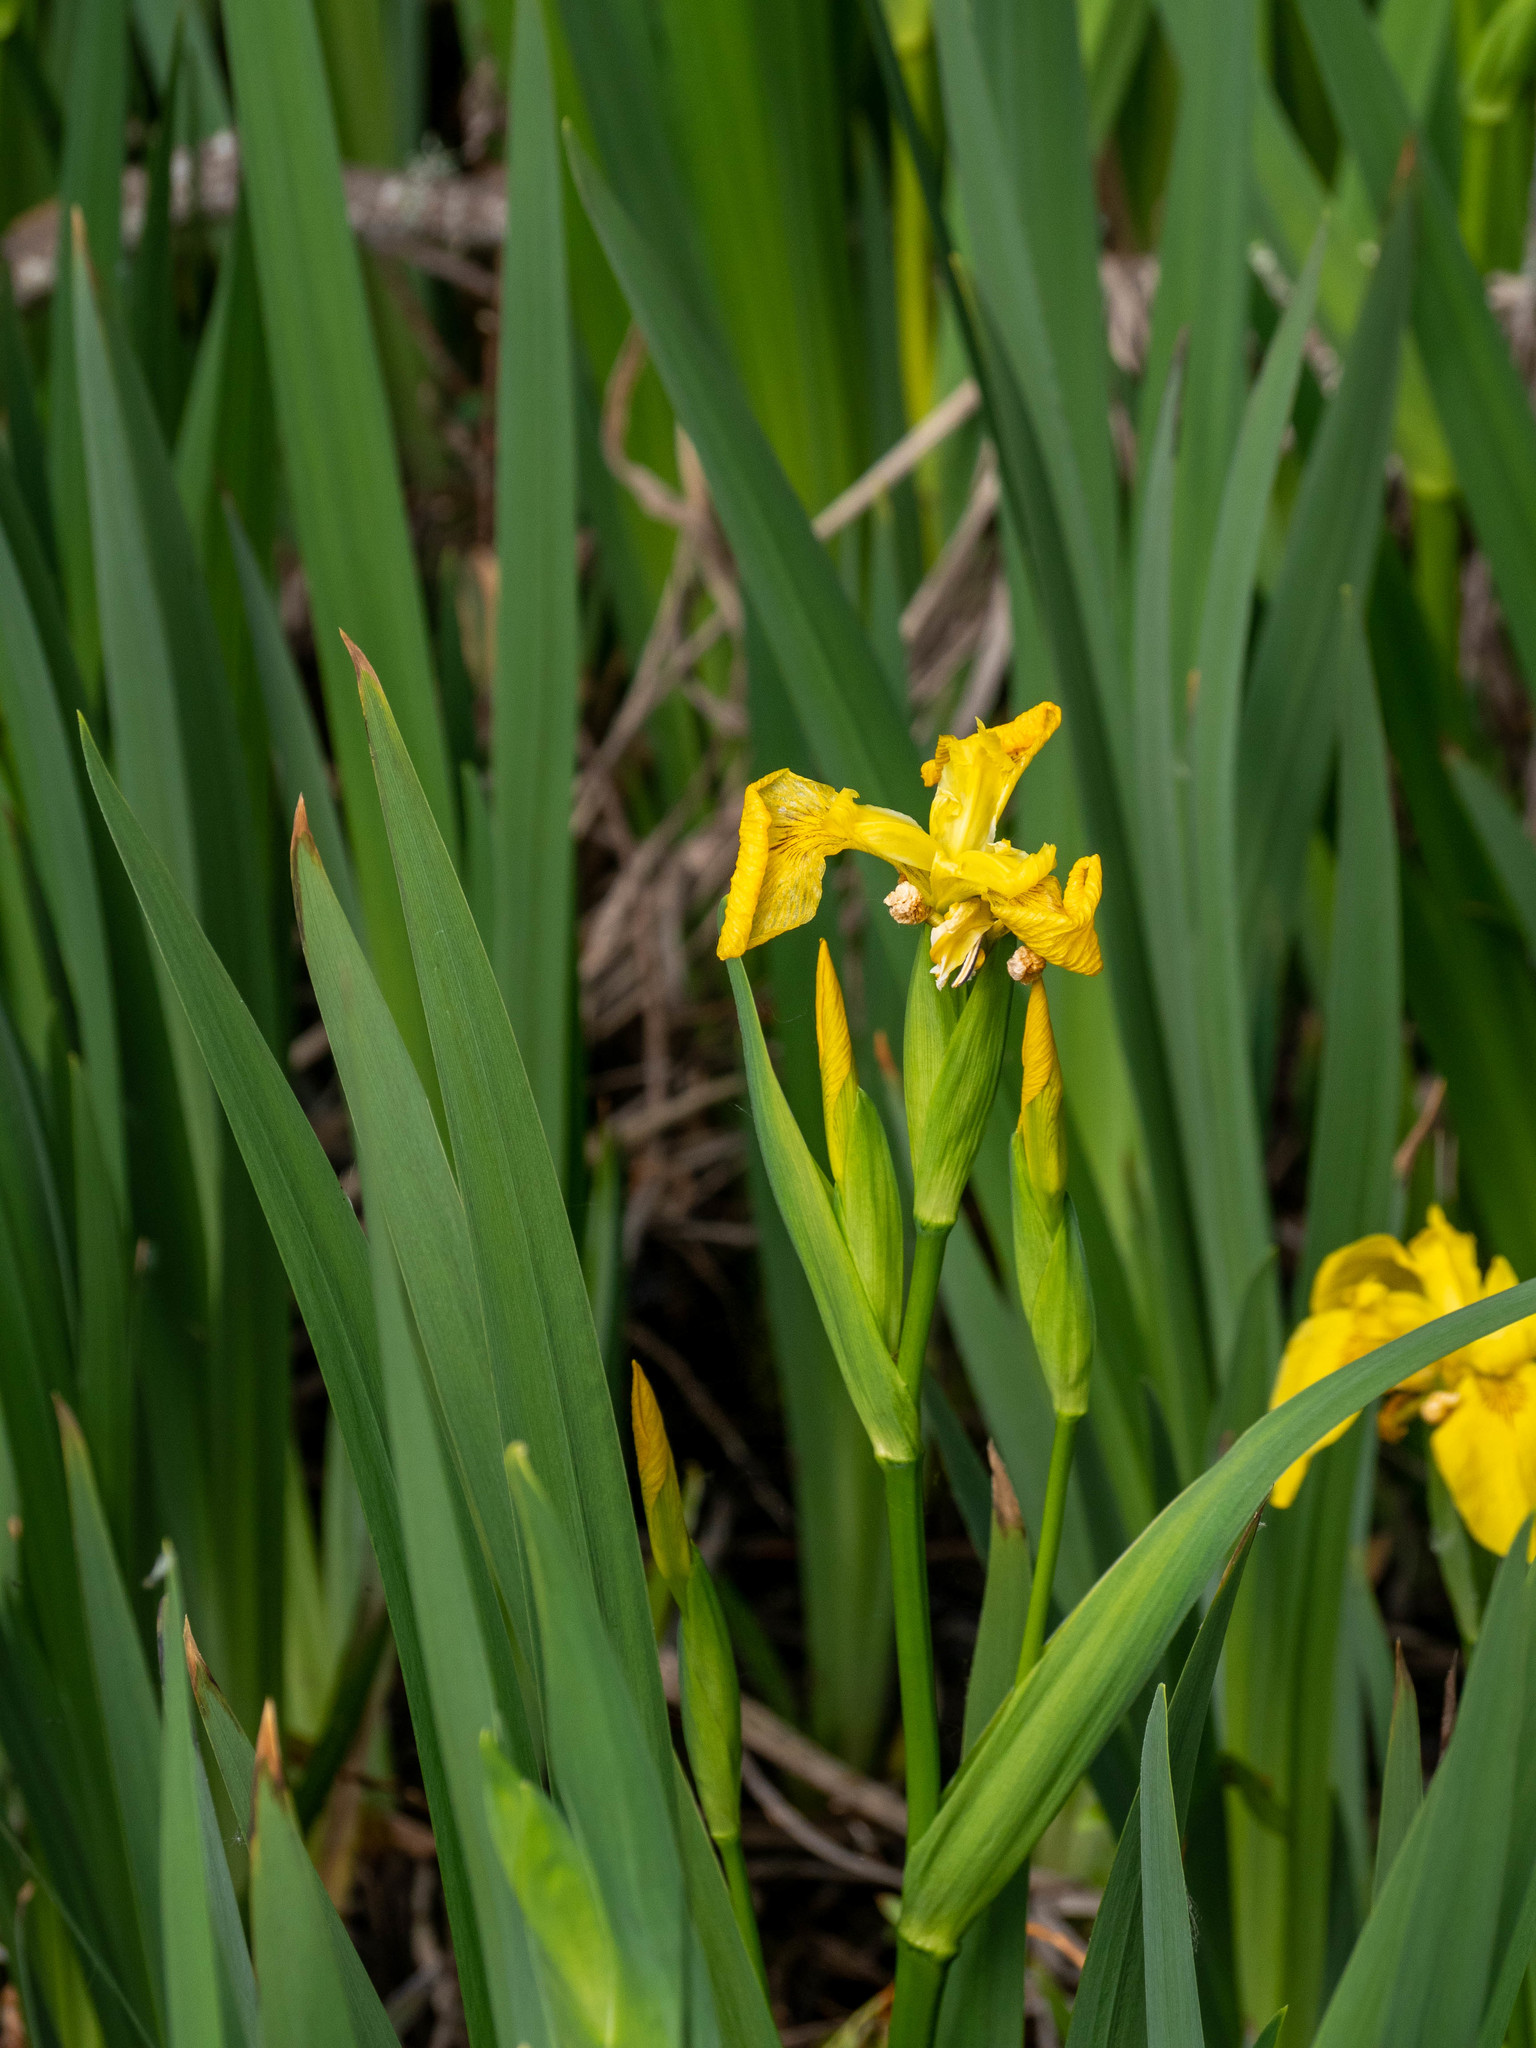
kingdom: Plantae
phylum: Tracheophyta
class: Liliopsida
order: Asparagales
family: Iridaceae
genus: Iris
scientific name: Iris pseudacorus
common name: Yellow flag
